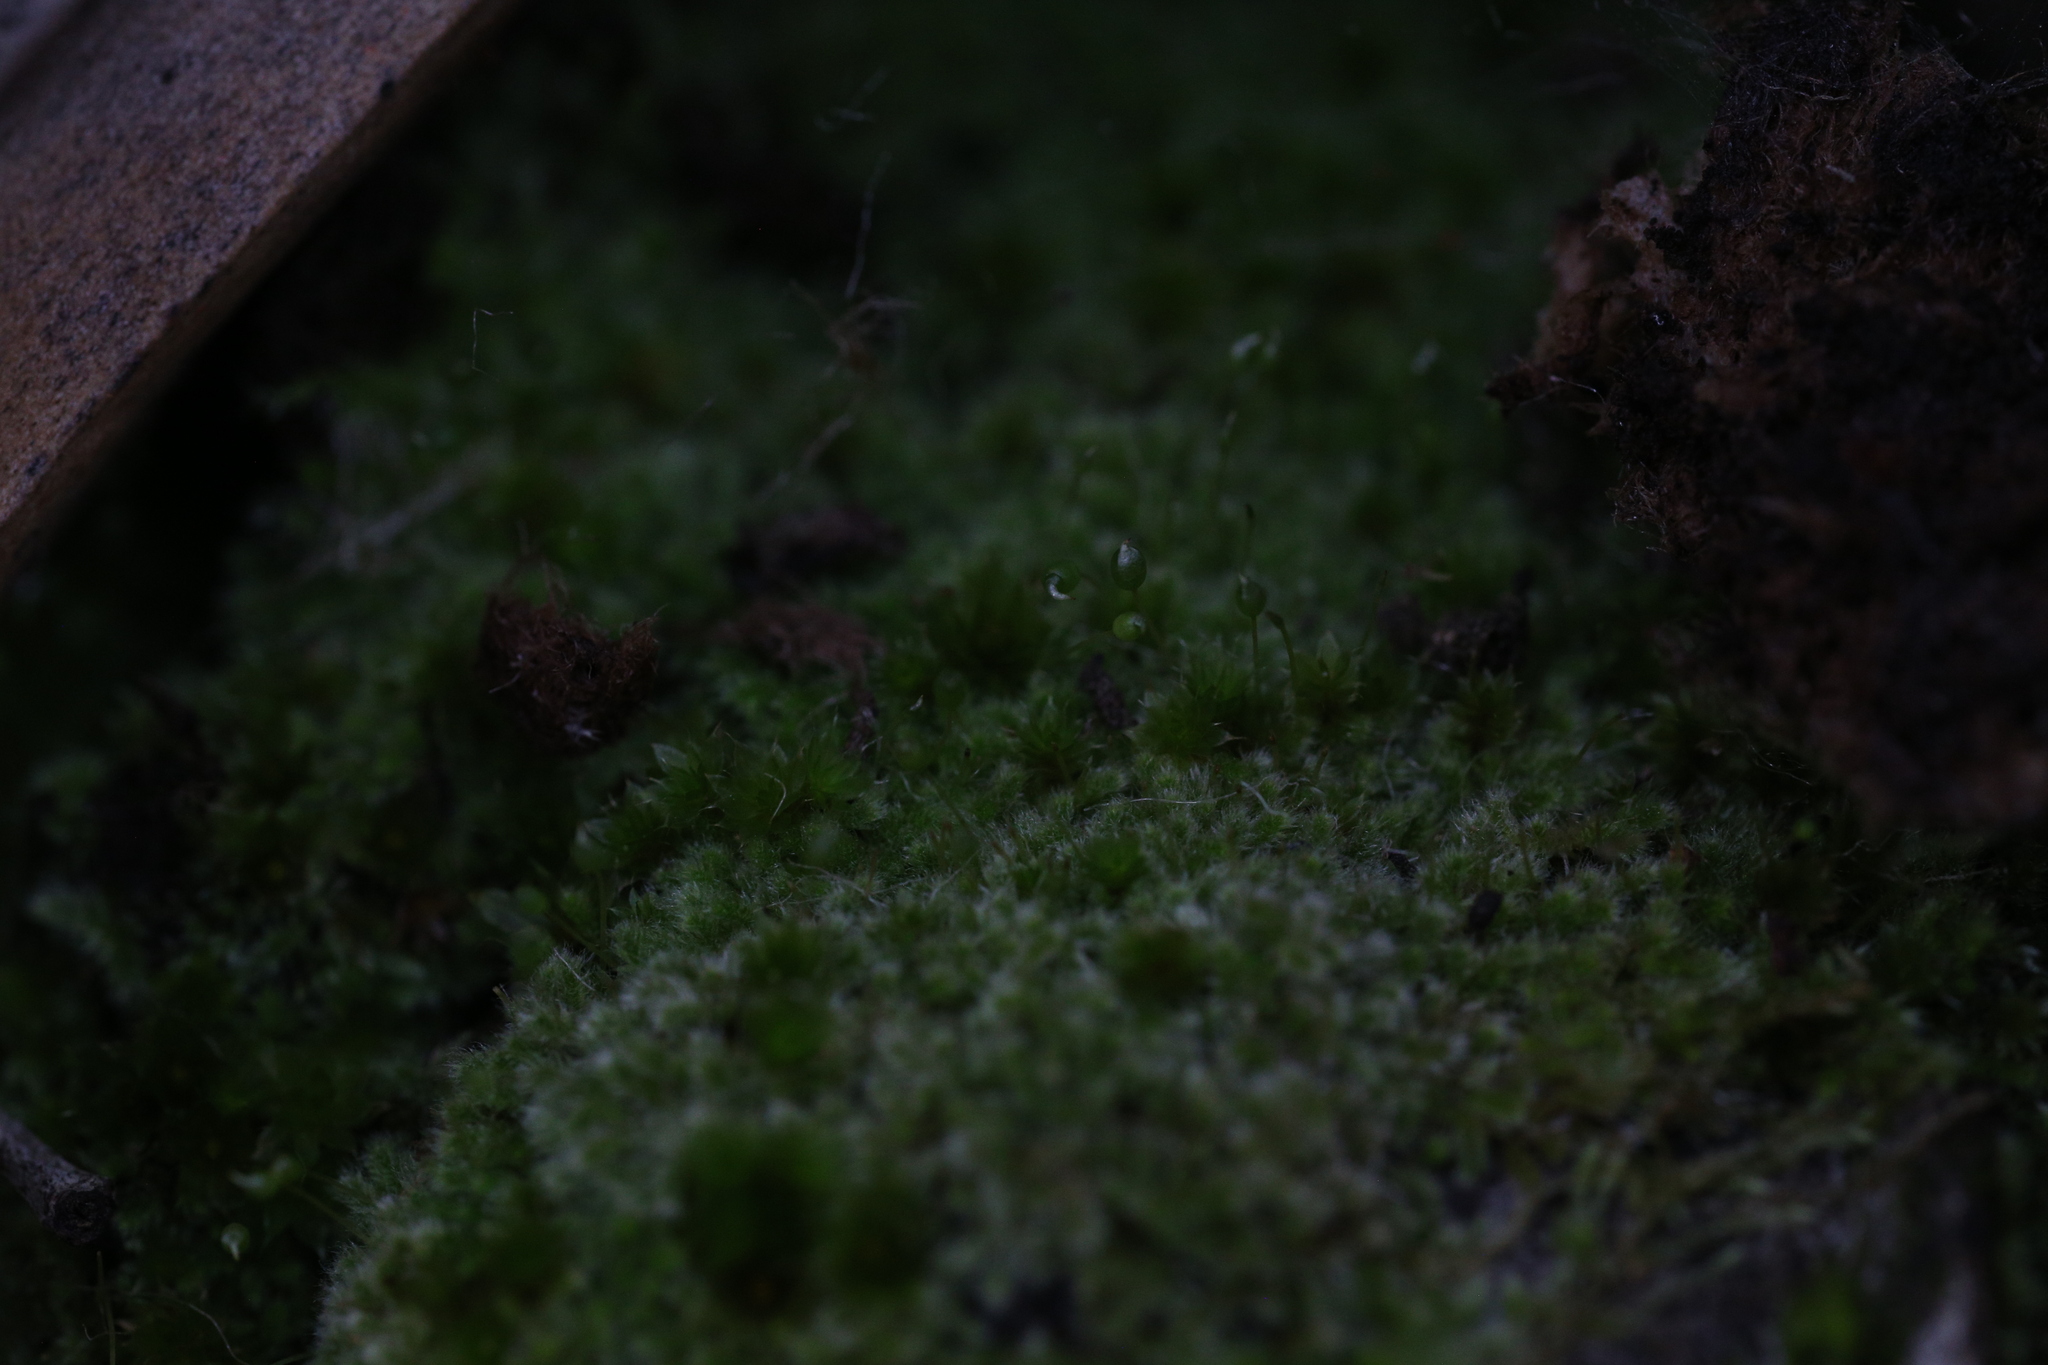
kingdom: Plantae
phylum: Bryophyta
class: Bryopsida
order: Hypnales
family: Fabroniaceae
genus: Fabronia
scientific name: Fabronia hampeana
